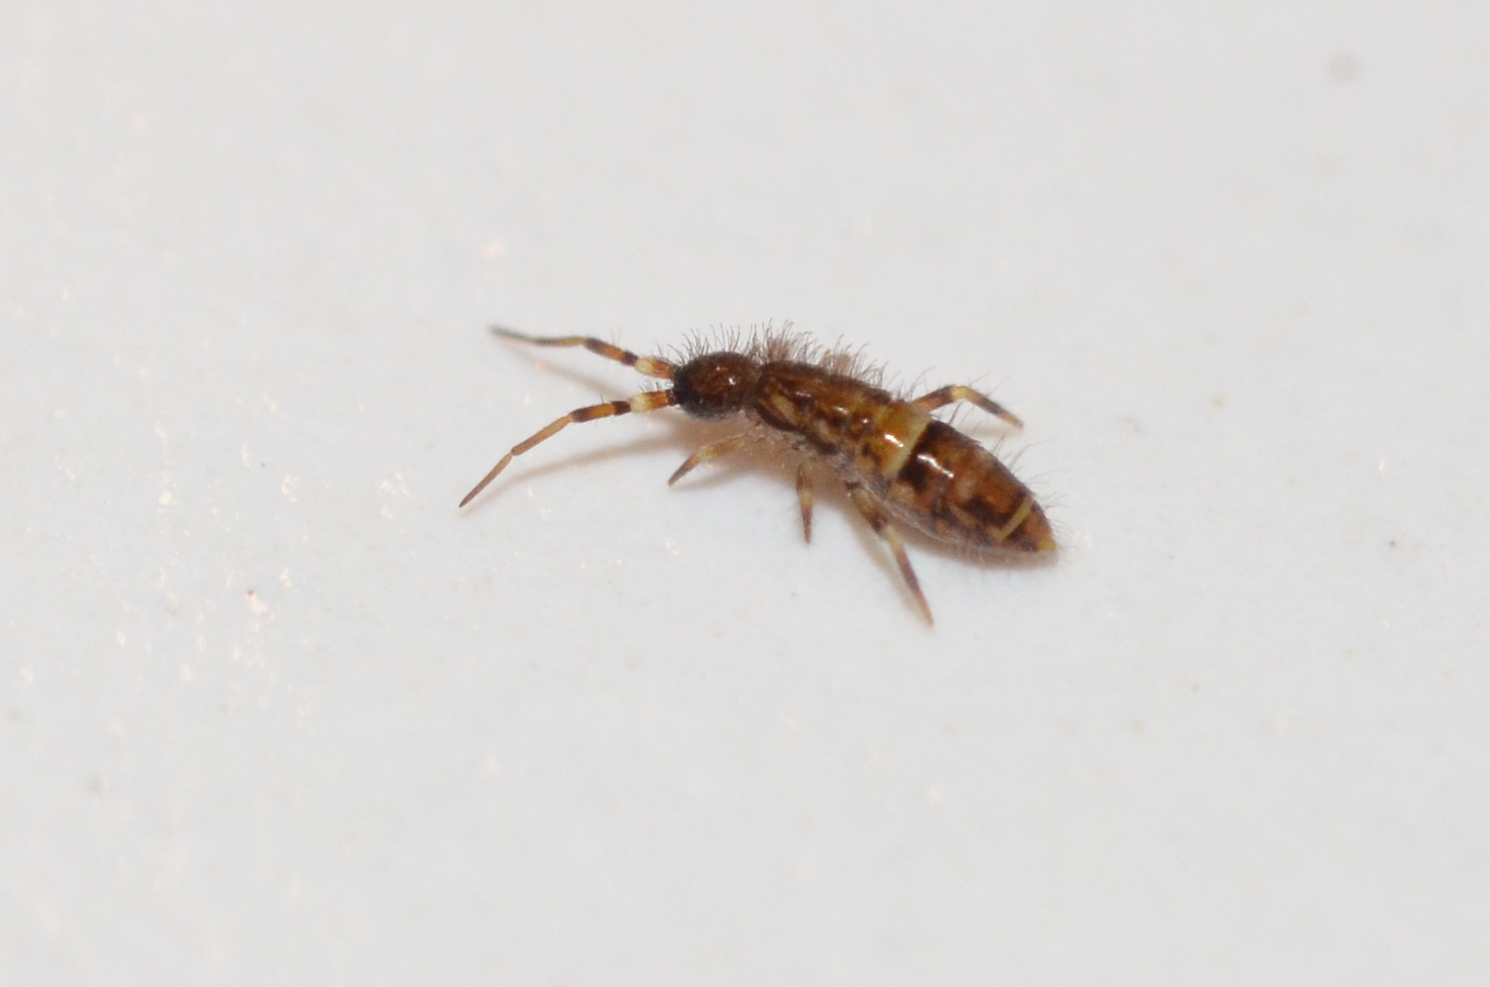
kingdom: Animalia
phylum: Arthropoda
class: Collembola
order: Entomobryomorpha
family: Orchesellidae
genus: Orchesella
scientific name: Orchesella cincta
